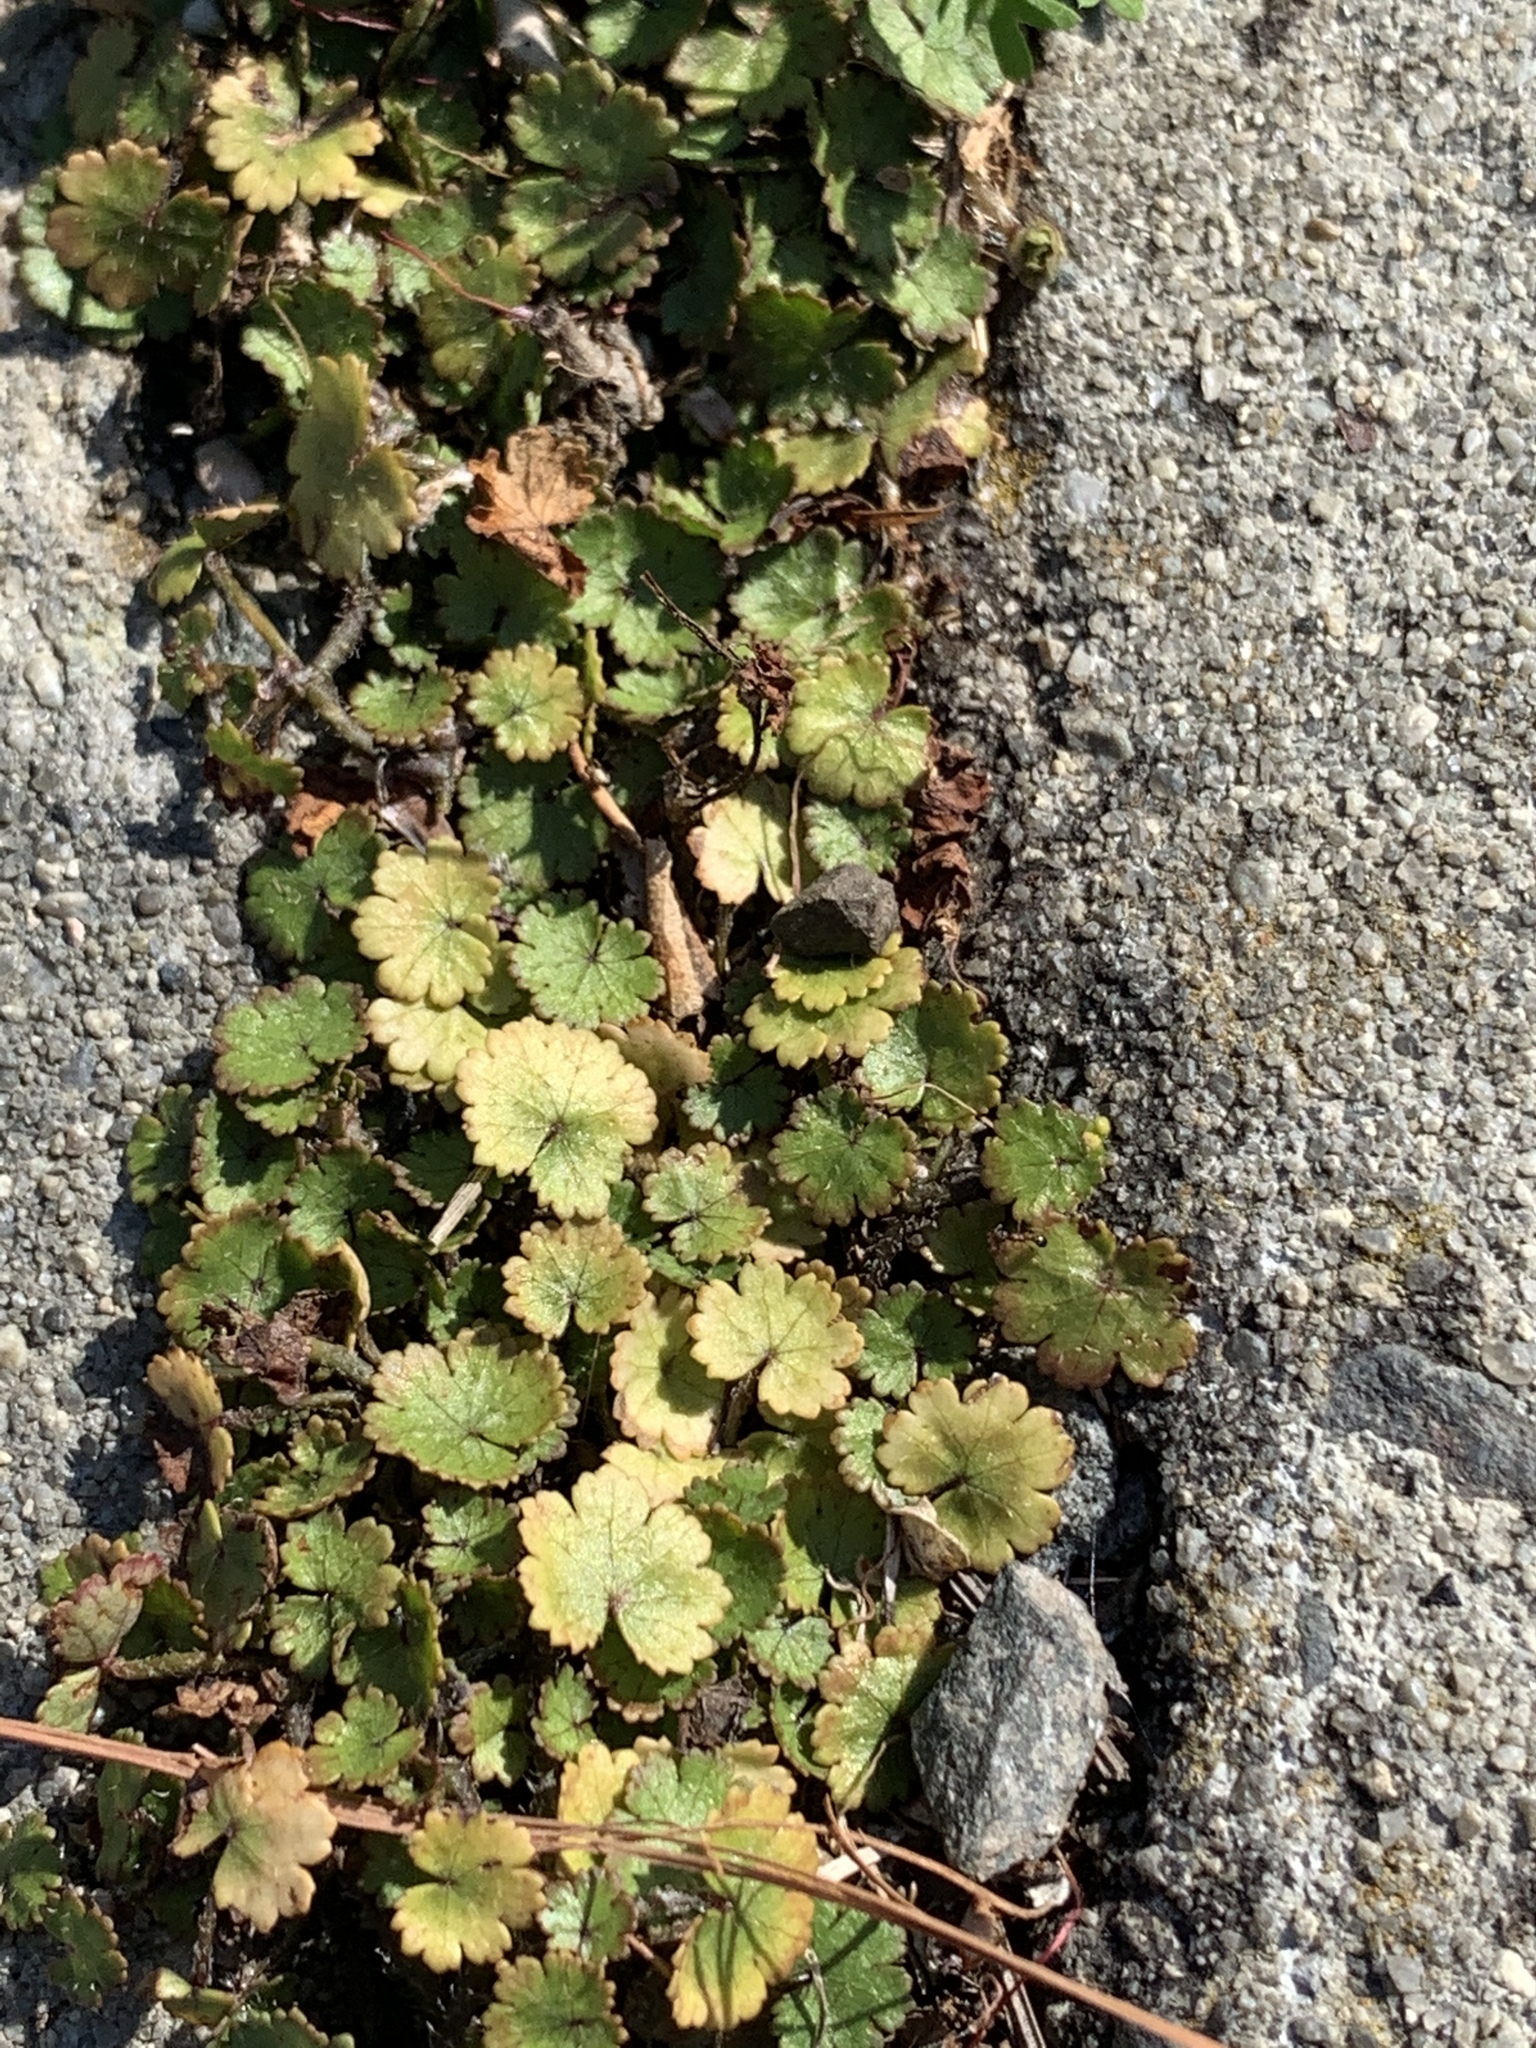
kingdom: Plantae
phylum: Tracheophyta
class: Magnoliopsida
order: Apiales
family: Araliaceae
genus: Hydrocotyle
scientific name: Hydrocotyle moschata
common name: Hairy pennywort
